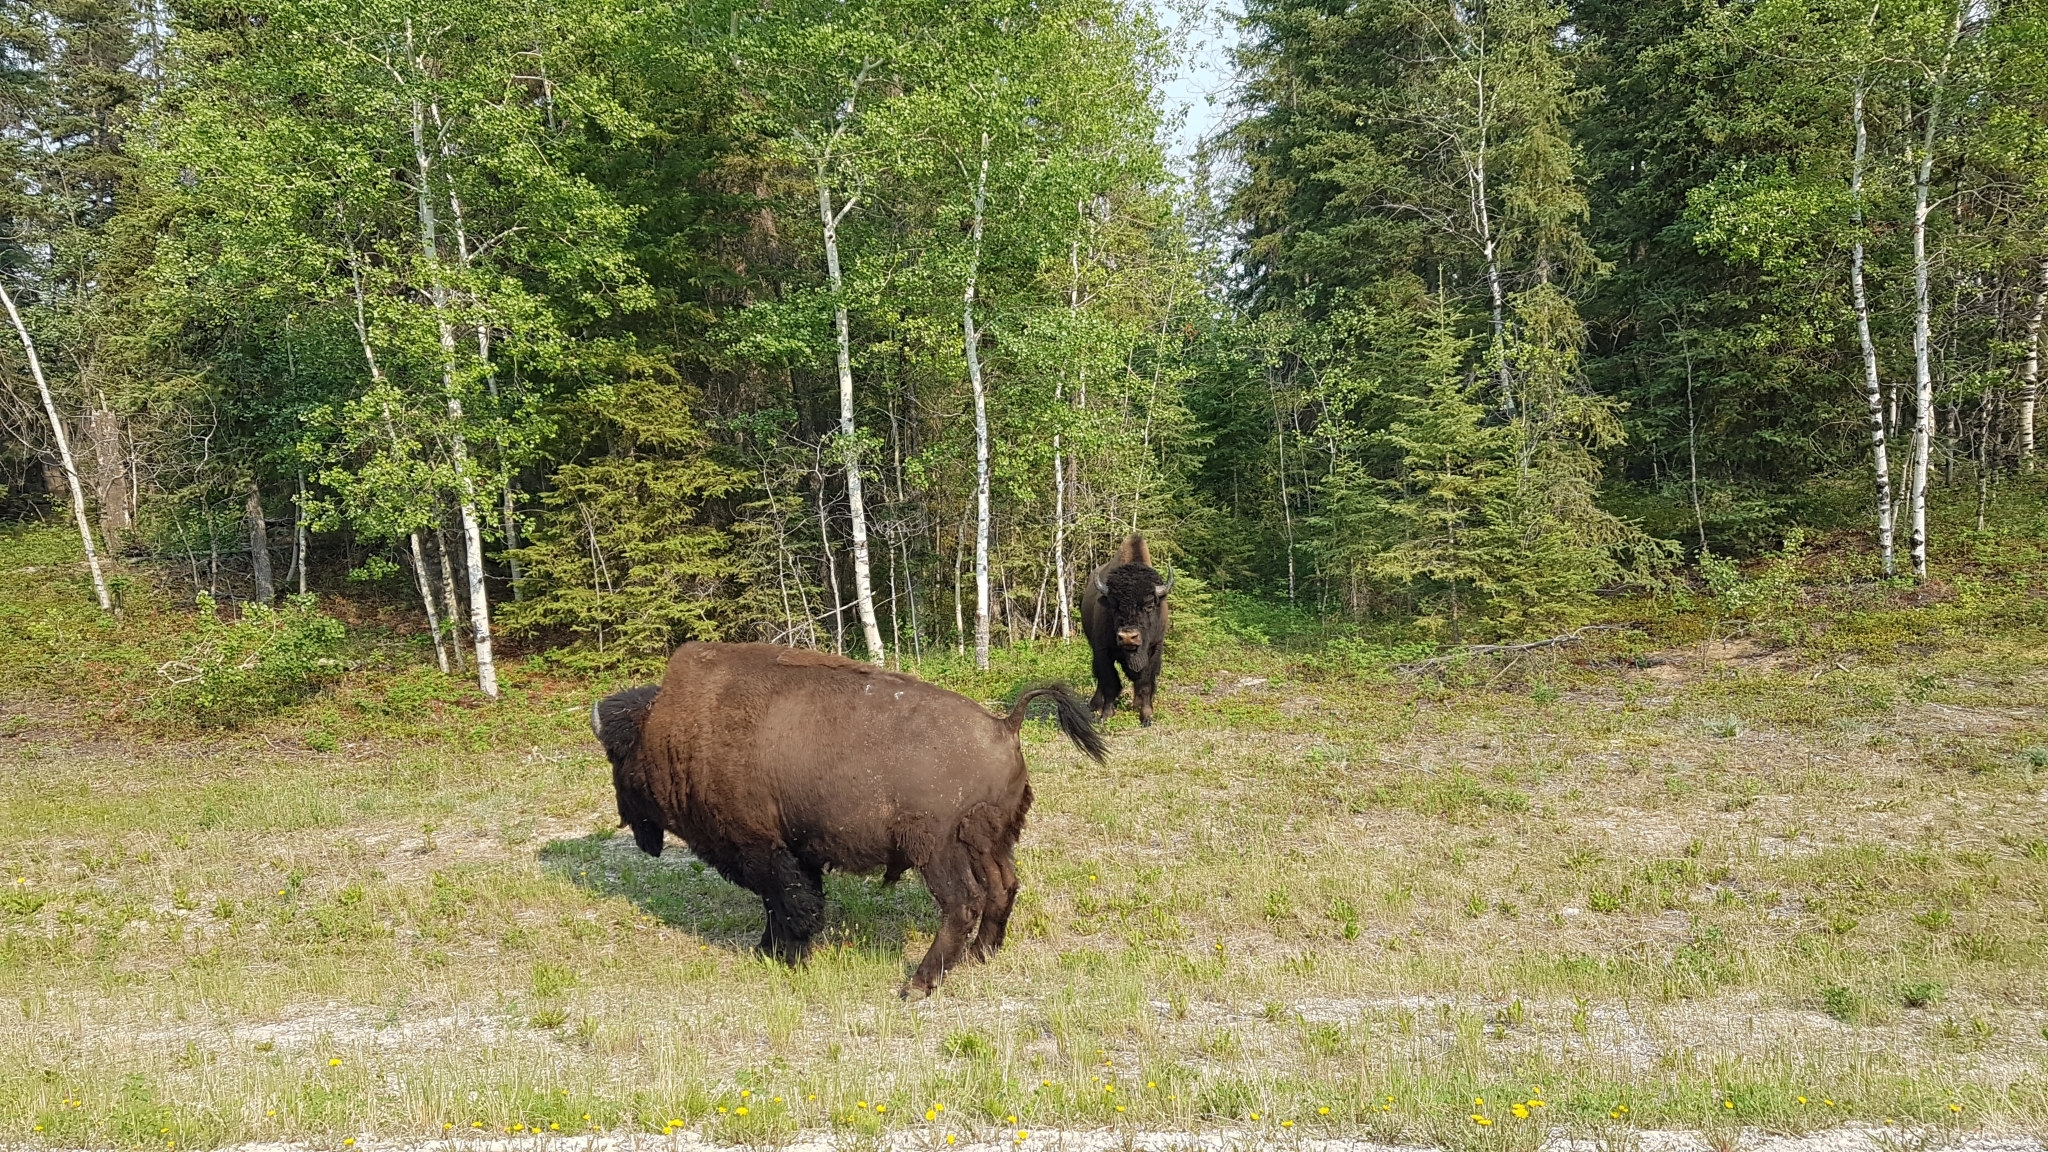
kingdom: Animalia
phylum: Chordata
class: Mammalia
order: Artiodactyla
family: Bovidae
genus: Bison
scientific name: Bison bison
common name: American bison
